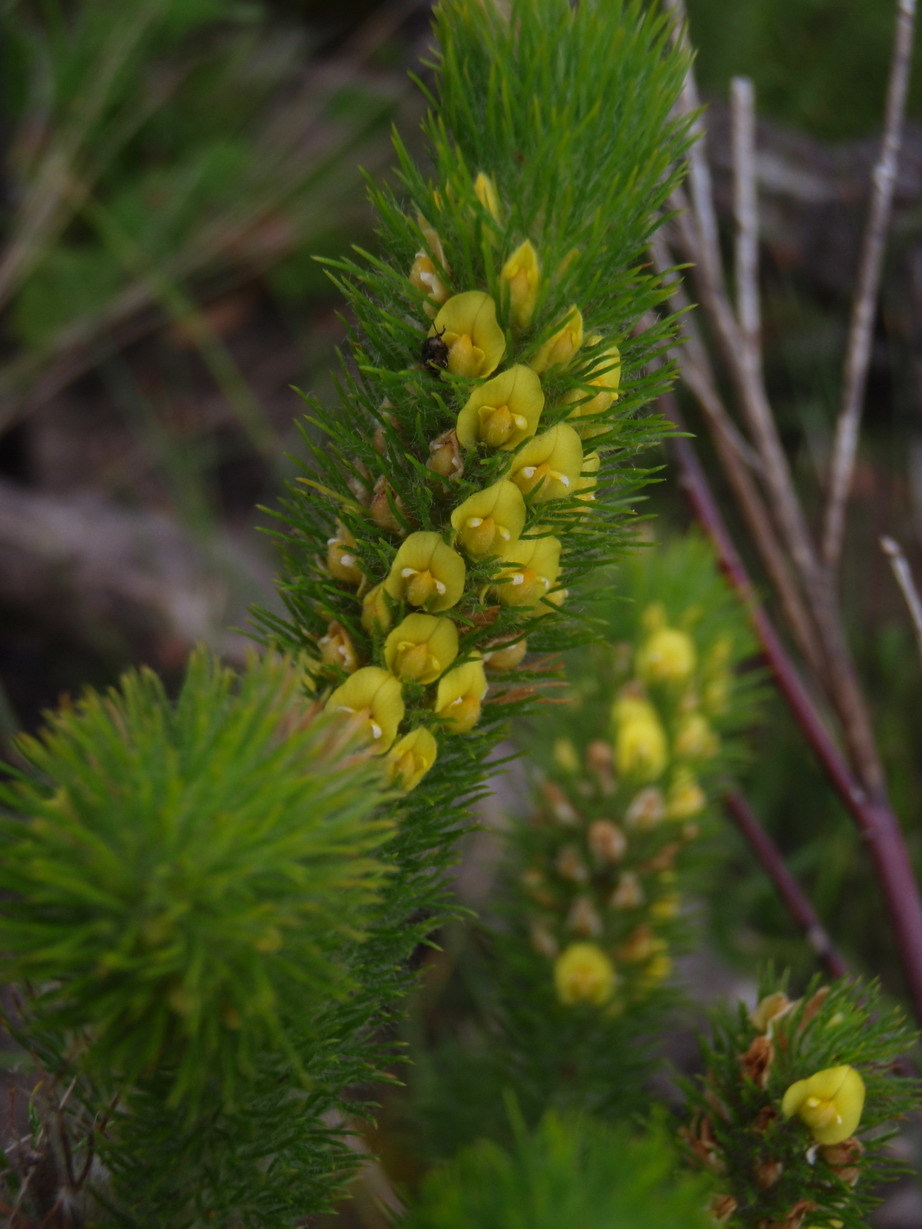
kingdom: Plantae
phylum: Tracheophyta
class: Magnoliopsida
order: Fabales
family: Fabaceae
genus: Aspalathus
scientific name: Aspalathus alopecurus
